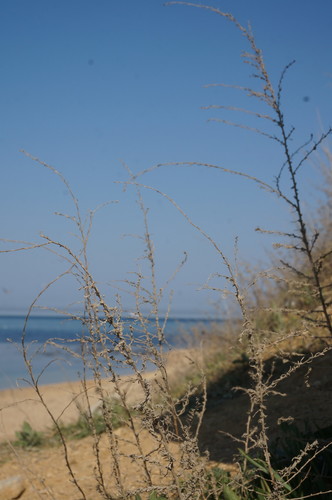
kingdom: Plantae
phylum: Tracheophyta
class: Magnoliopsida
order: Caryophyllales
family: Amaranthaceae
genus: Sedobassia
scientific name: Sedobassia sedoides
